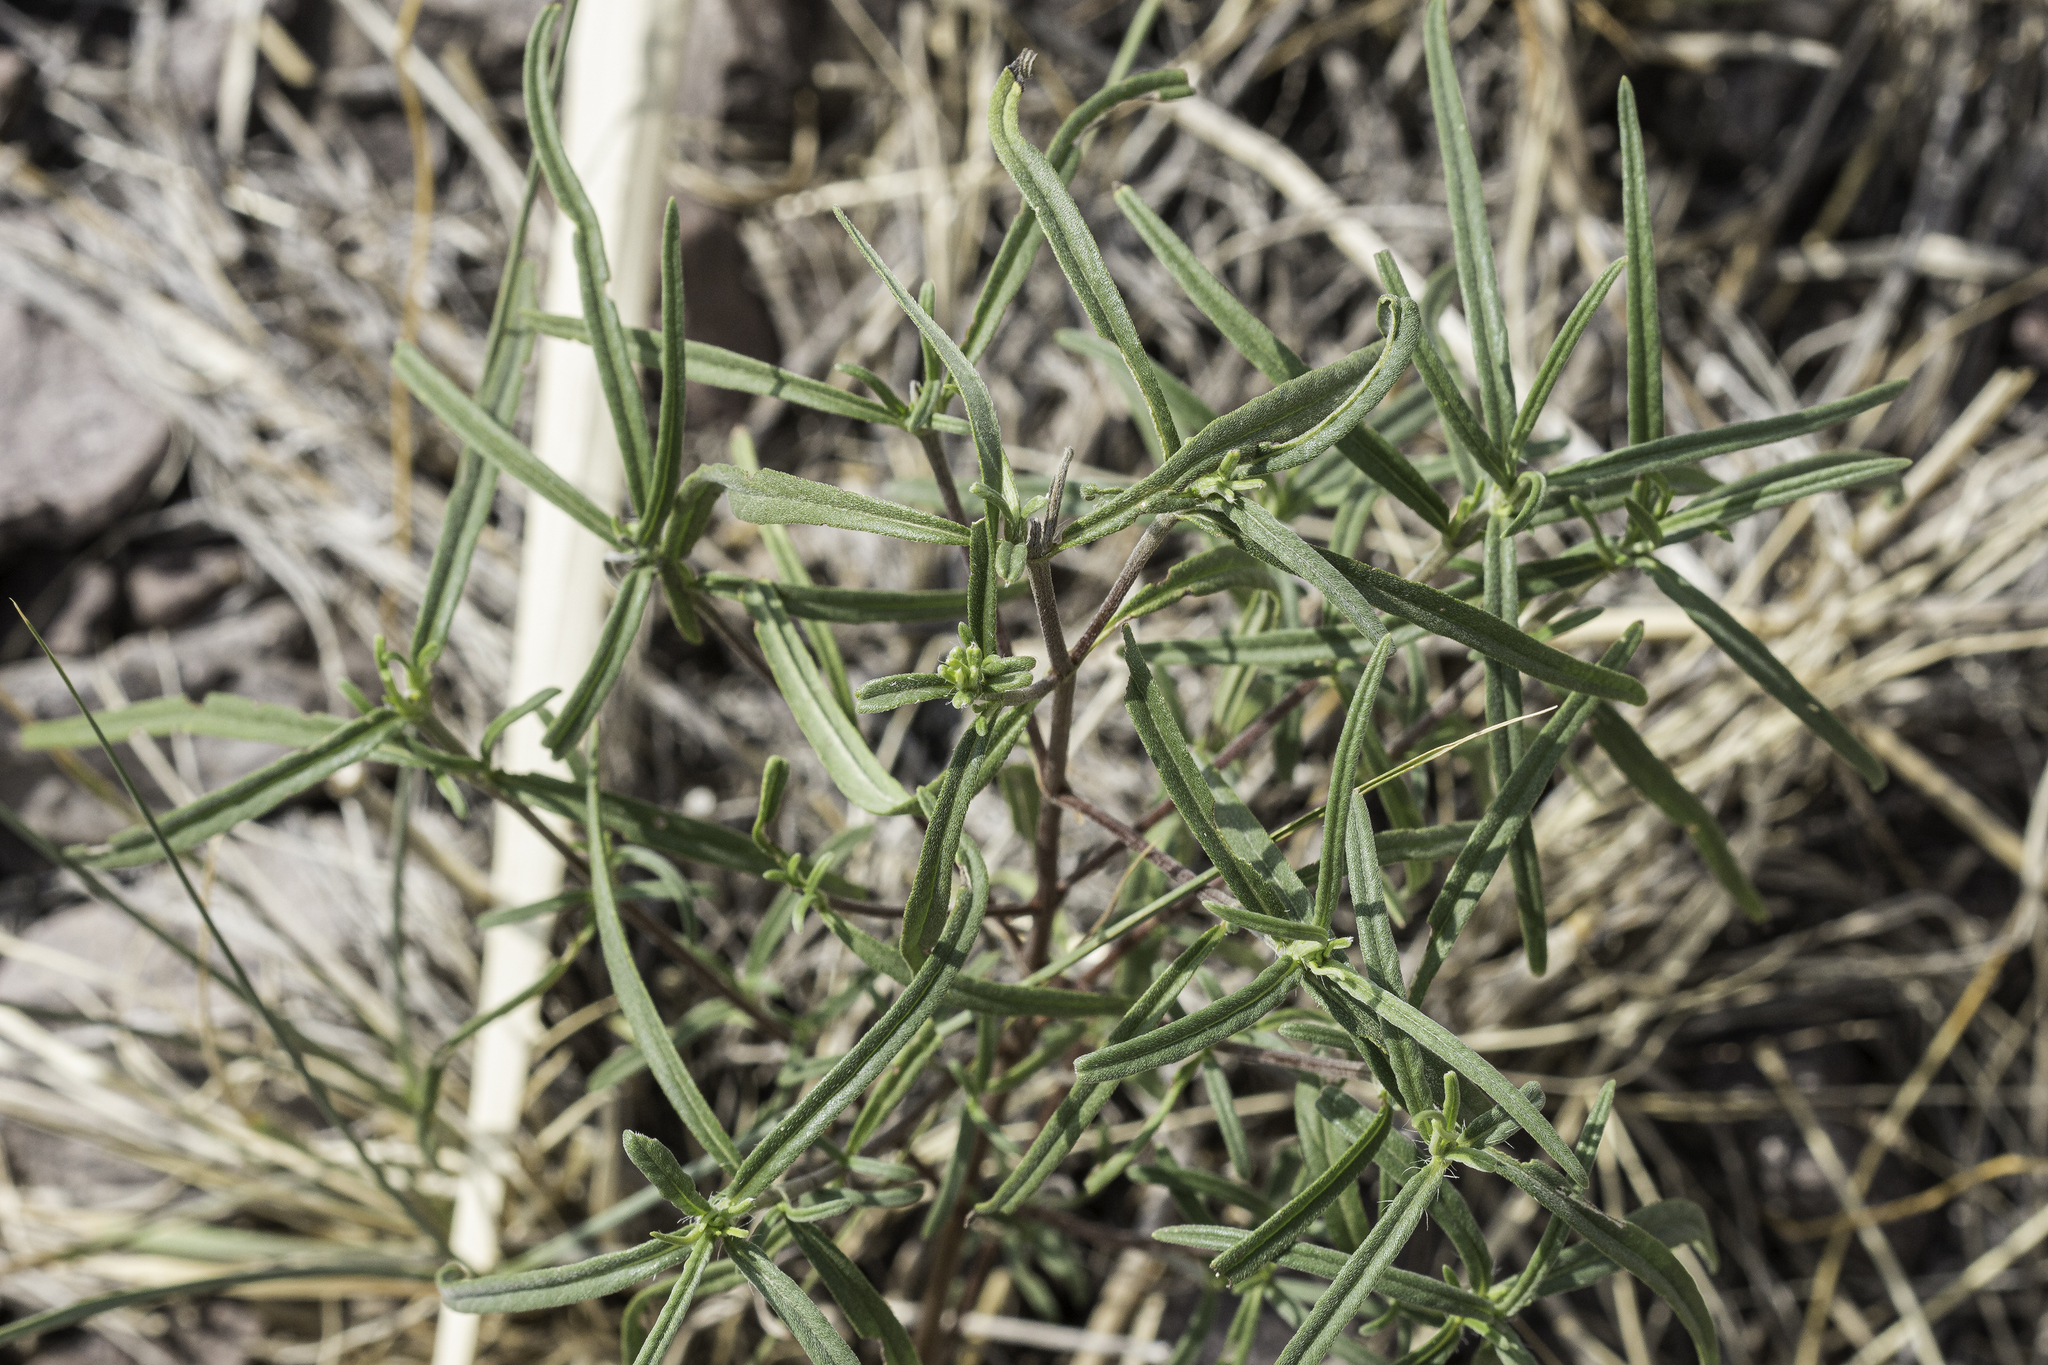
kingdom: Plantae
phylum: Tracheophyta
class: Magnoliopsida
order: Asterales
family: Asteraceae
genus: Heliomeris
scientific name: Heliomeris longifolia
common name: Longleaf false goldeneye
